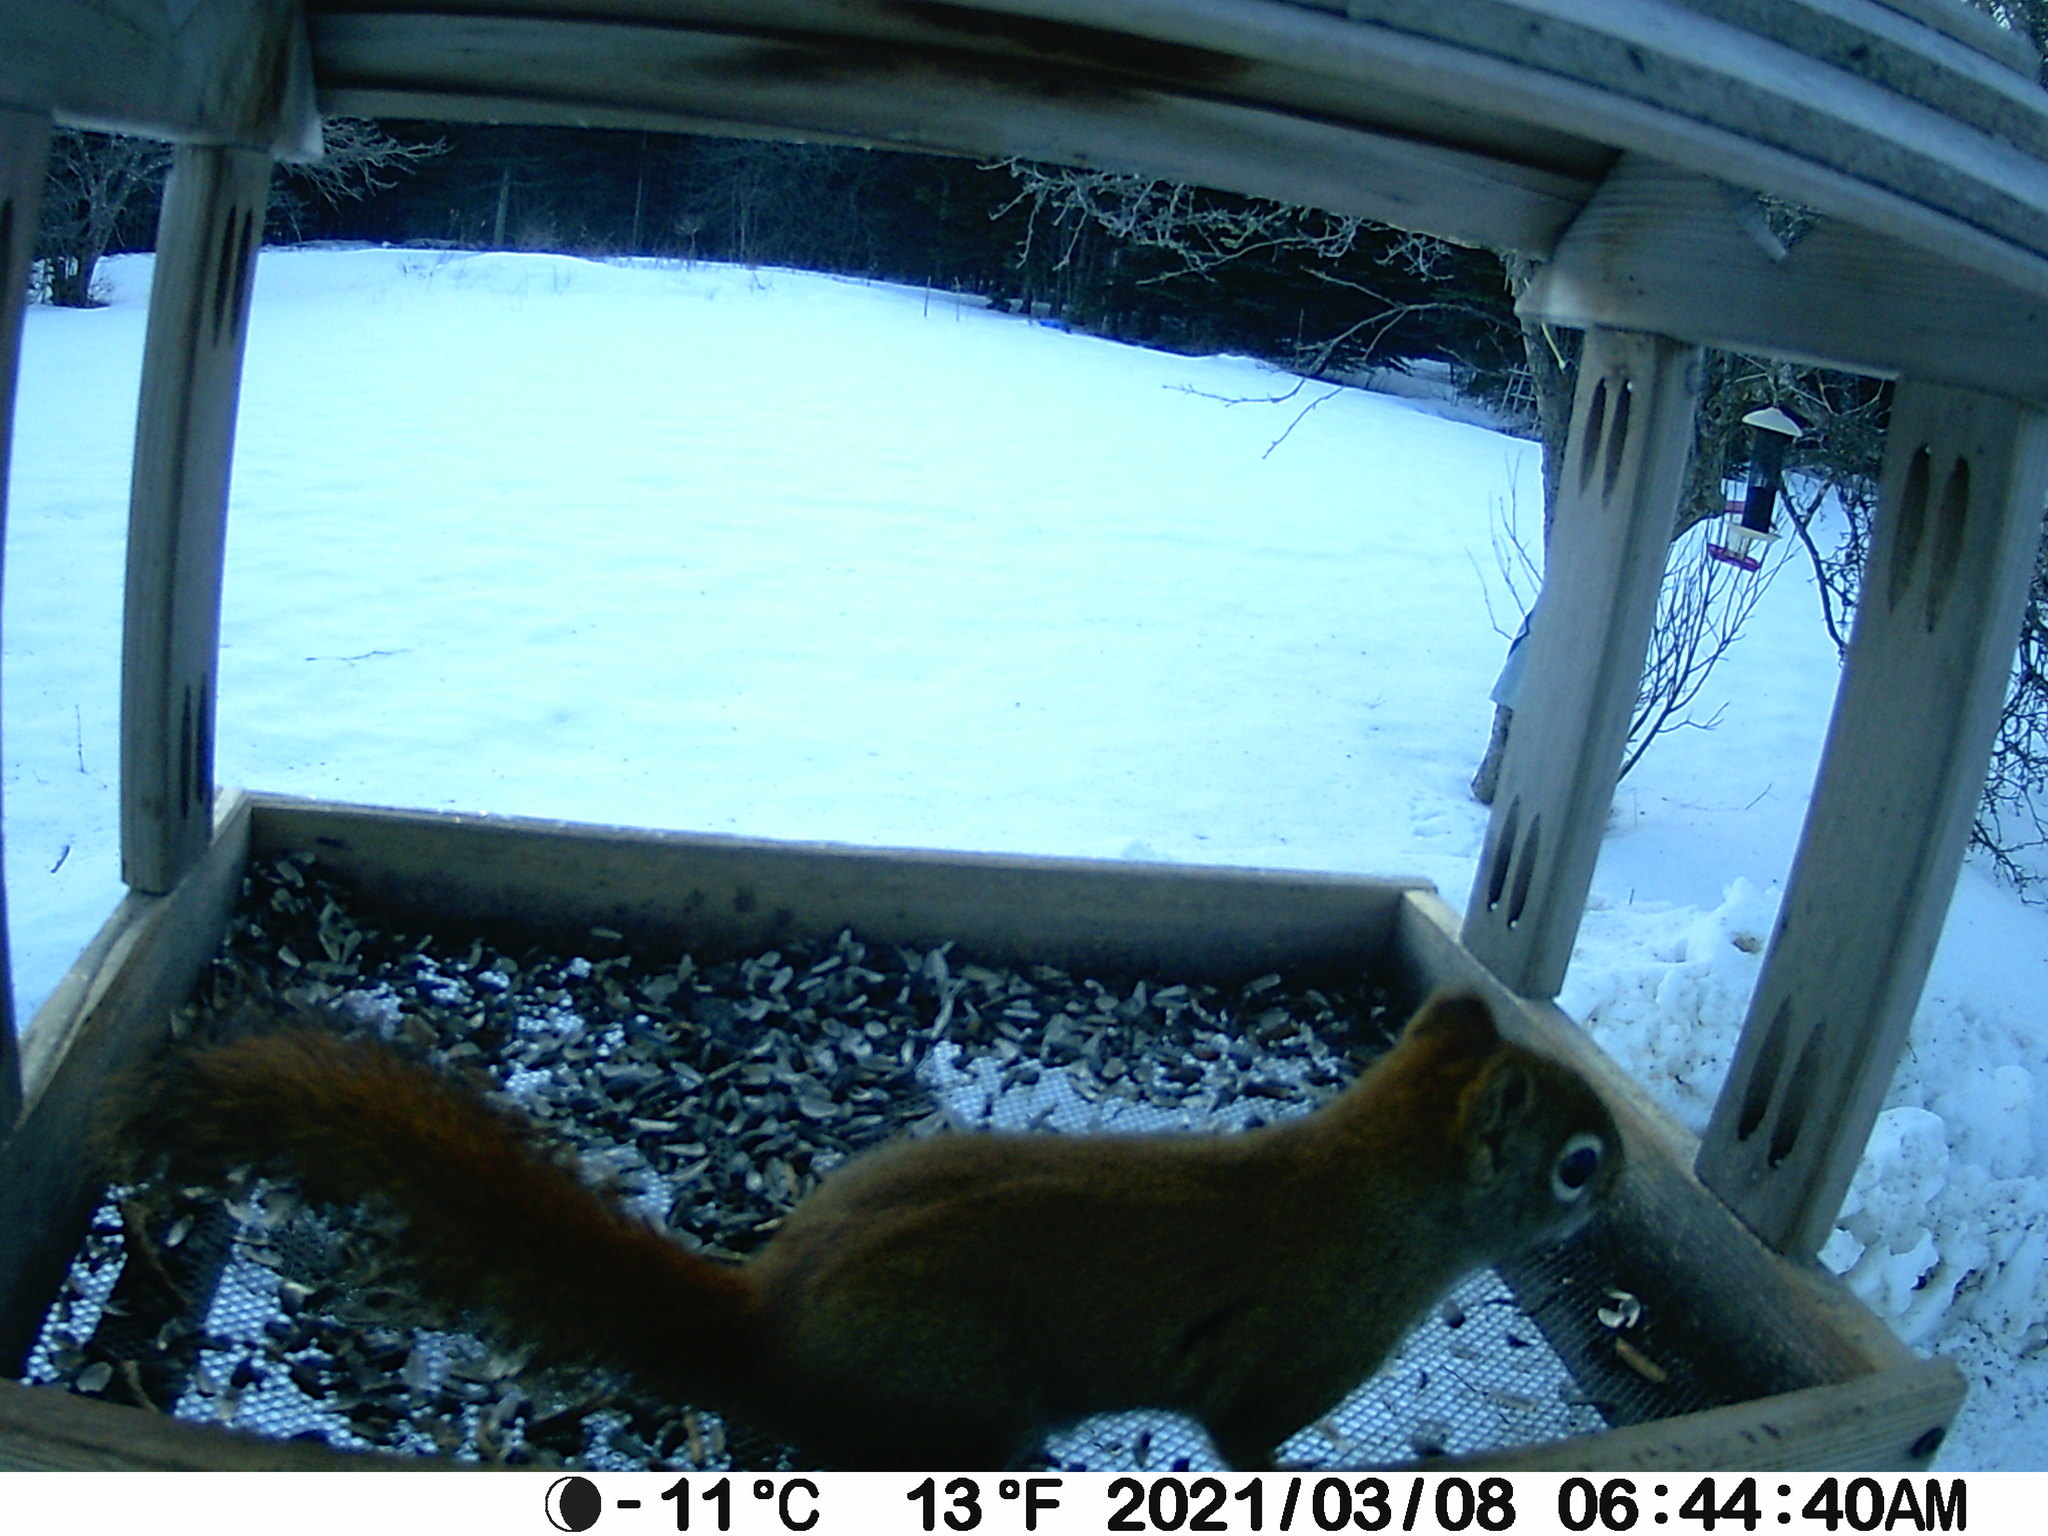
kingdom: Animalia
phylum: Chordata
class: Mammalia
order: Rodentia
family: Sciuridae
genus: Tamiasciurus
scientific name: Tamiasciurus hudsonicus
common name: Red squirrel
